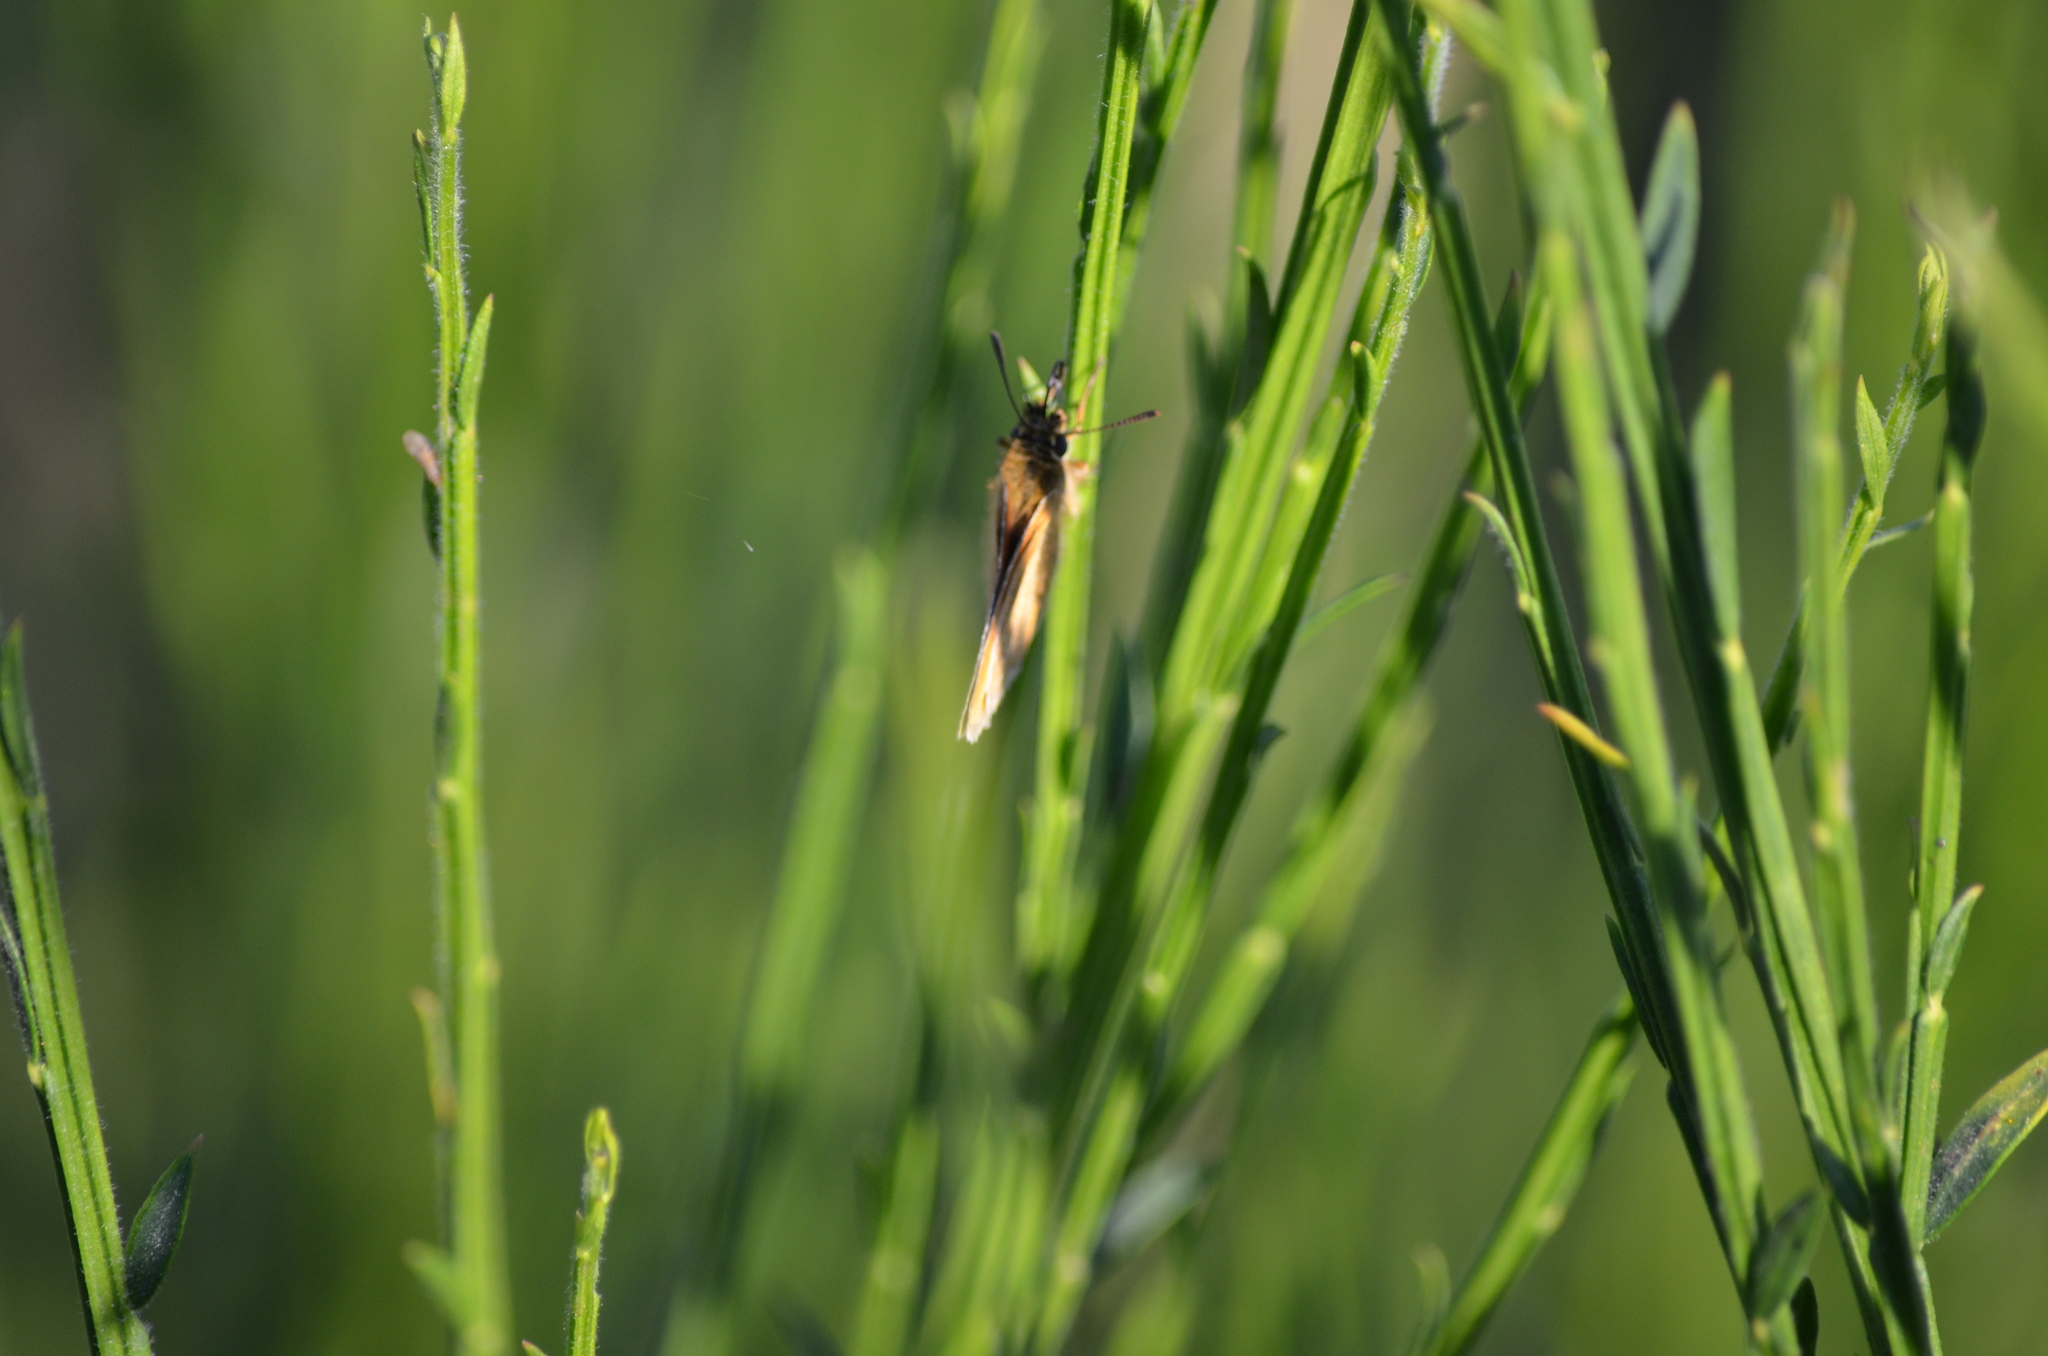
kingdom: Animalia
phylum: Arthropoda
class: Insecta
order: Lepidoptera
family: Hesperiidae
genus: Thymelicus
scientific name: Thymelicus lineola
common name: Essex skipper
